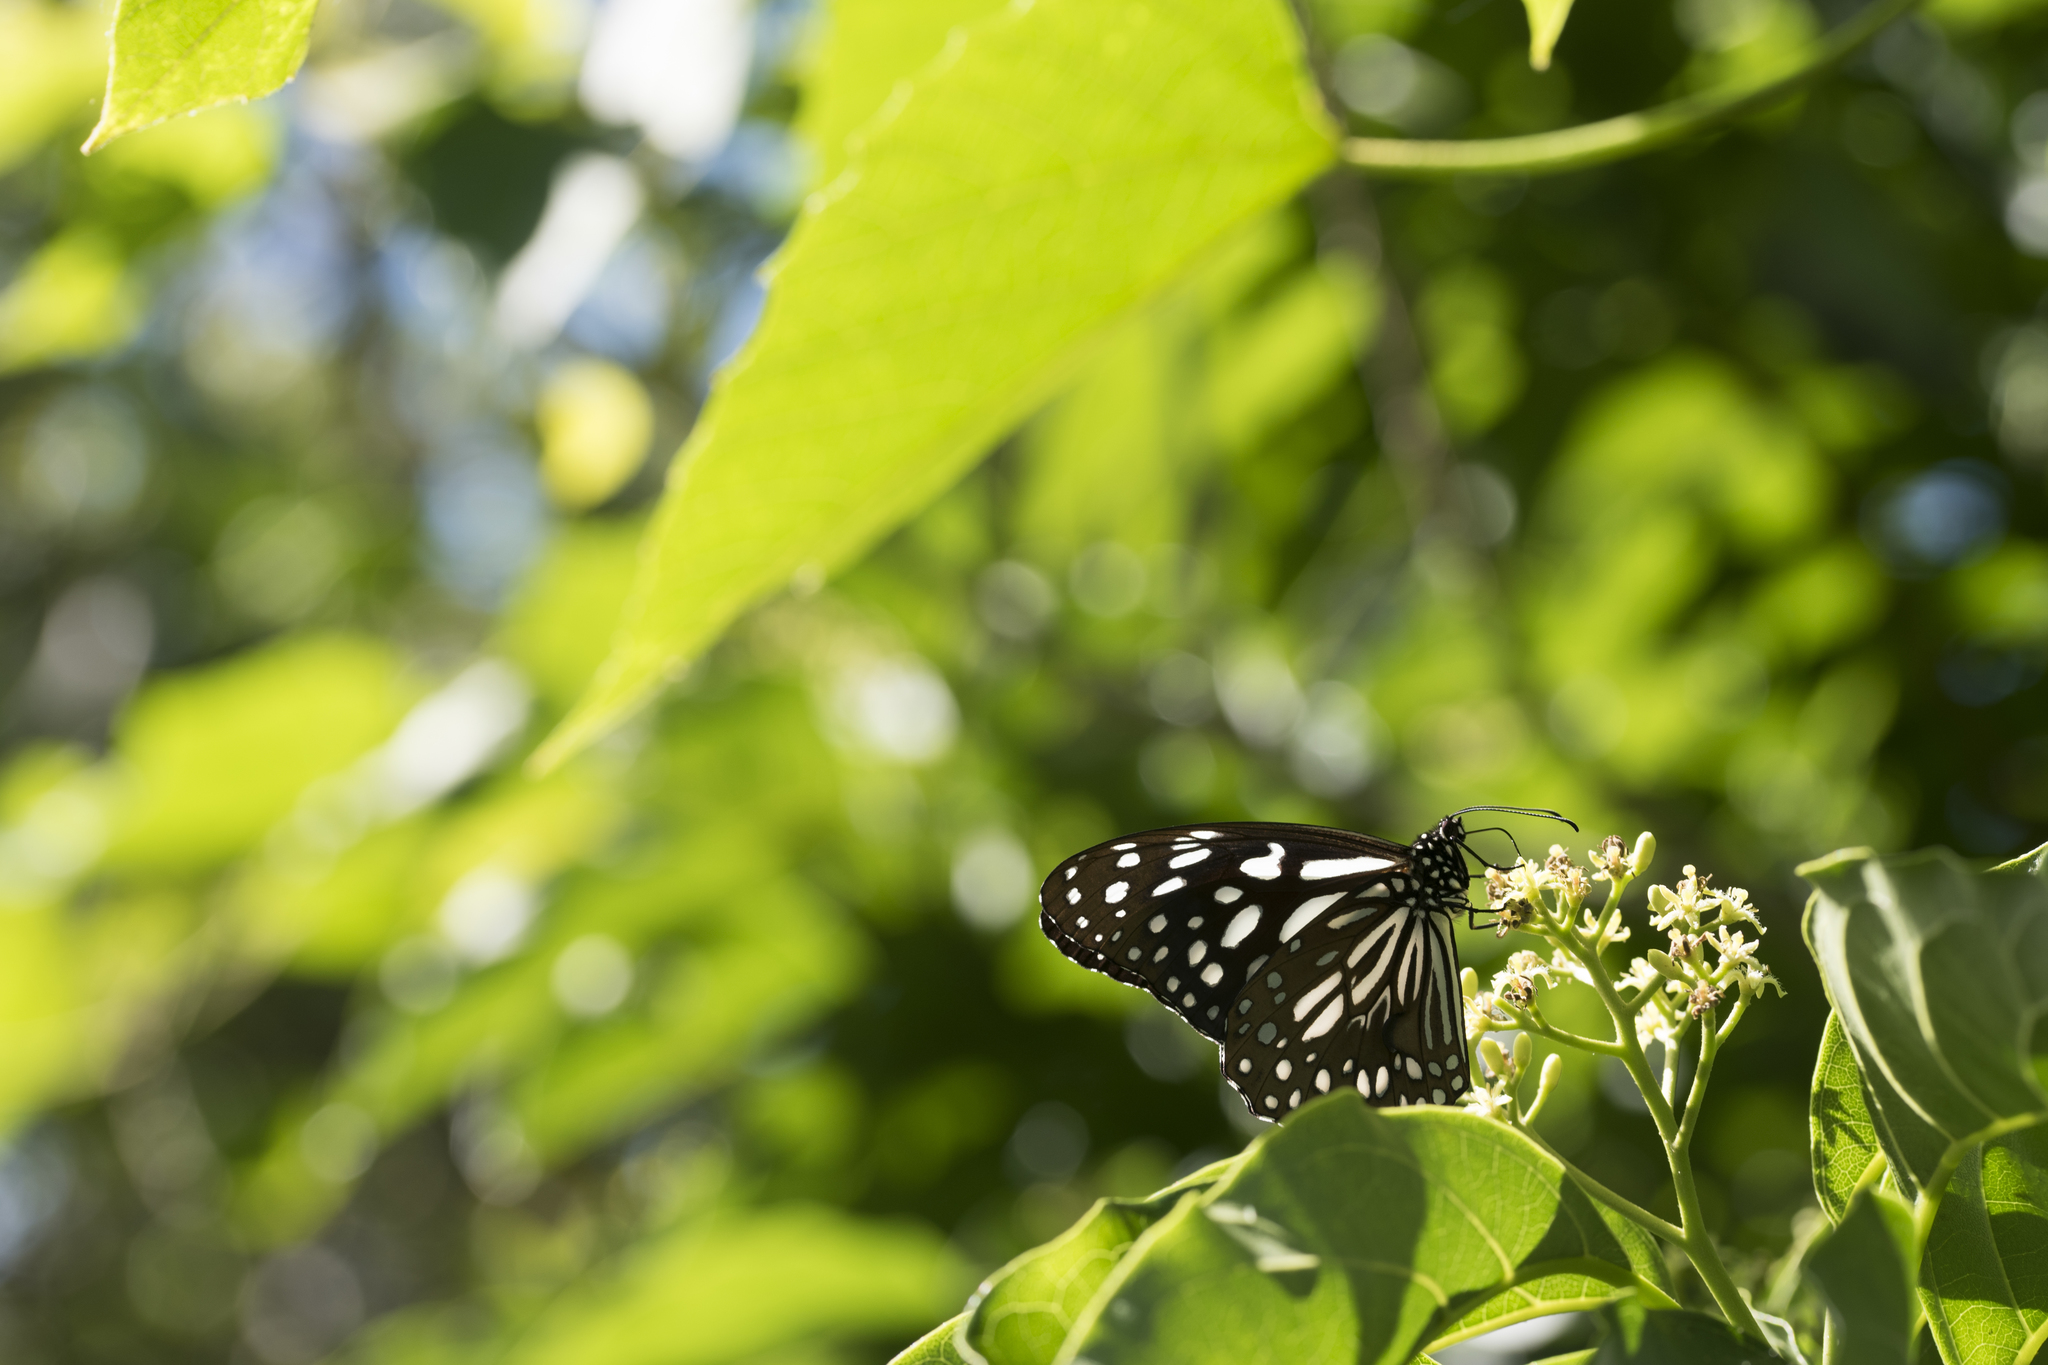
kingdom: Animalia
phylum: Arthropoda
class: Insecta
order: Lepidoptera
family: Nymphalidae
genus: Tirumala
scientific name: Tirumala limniace
